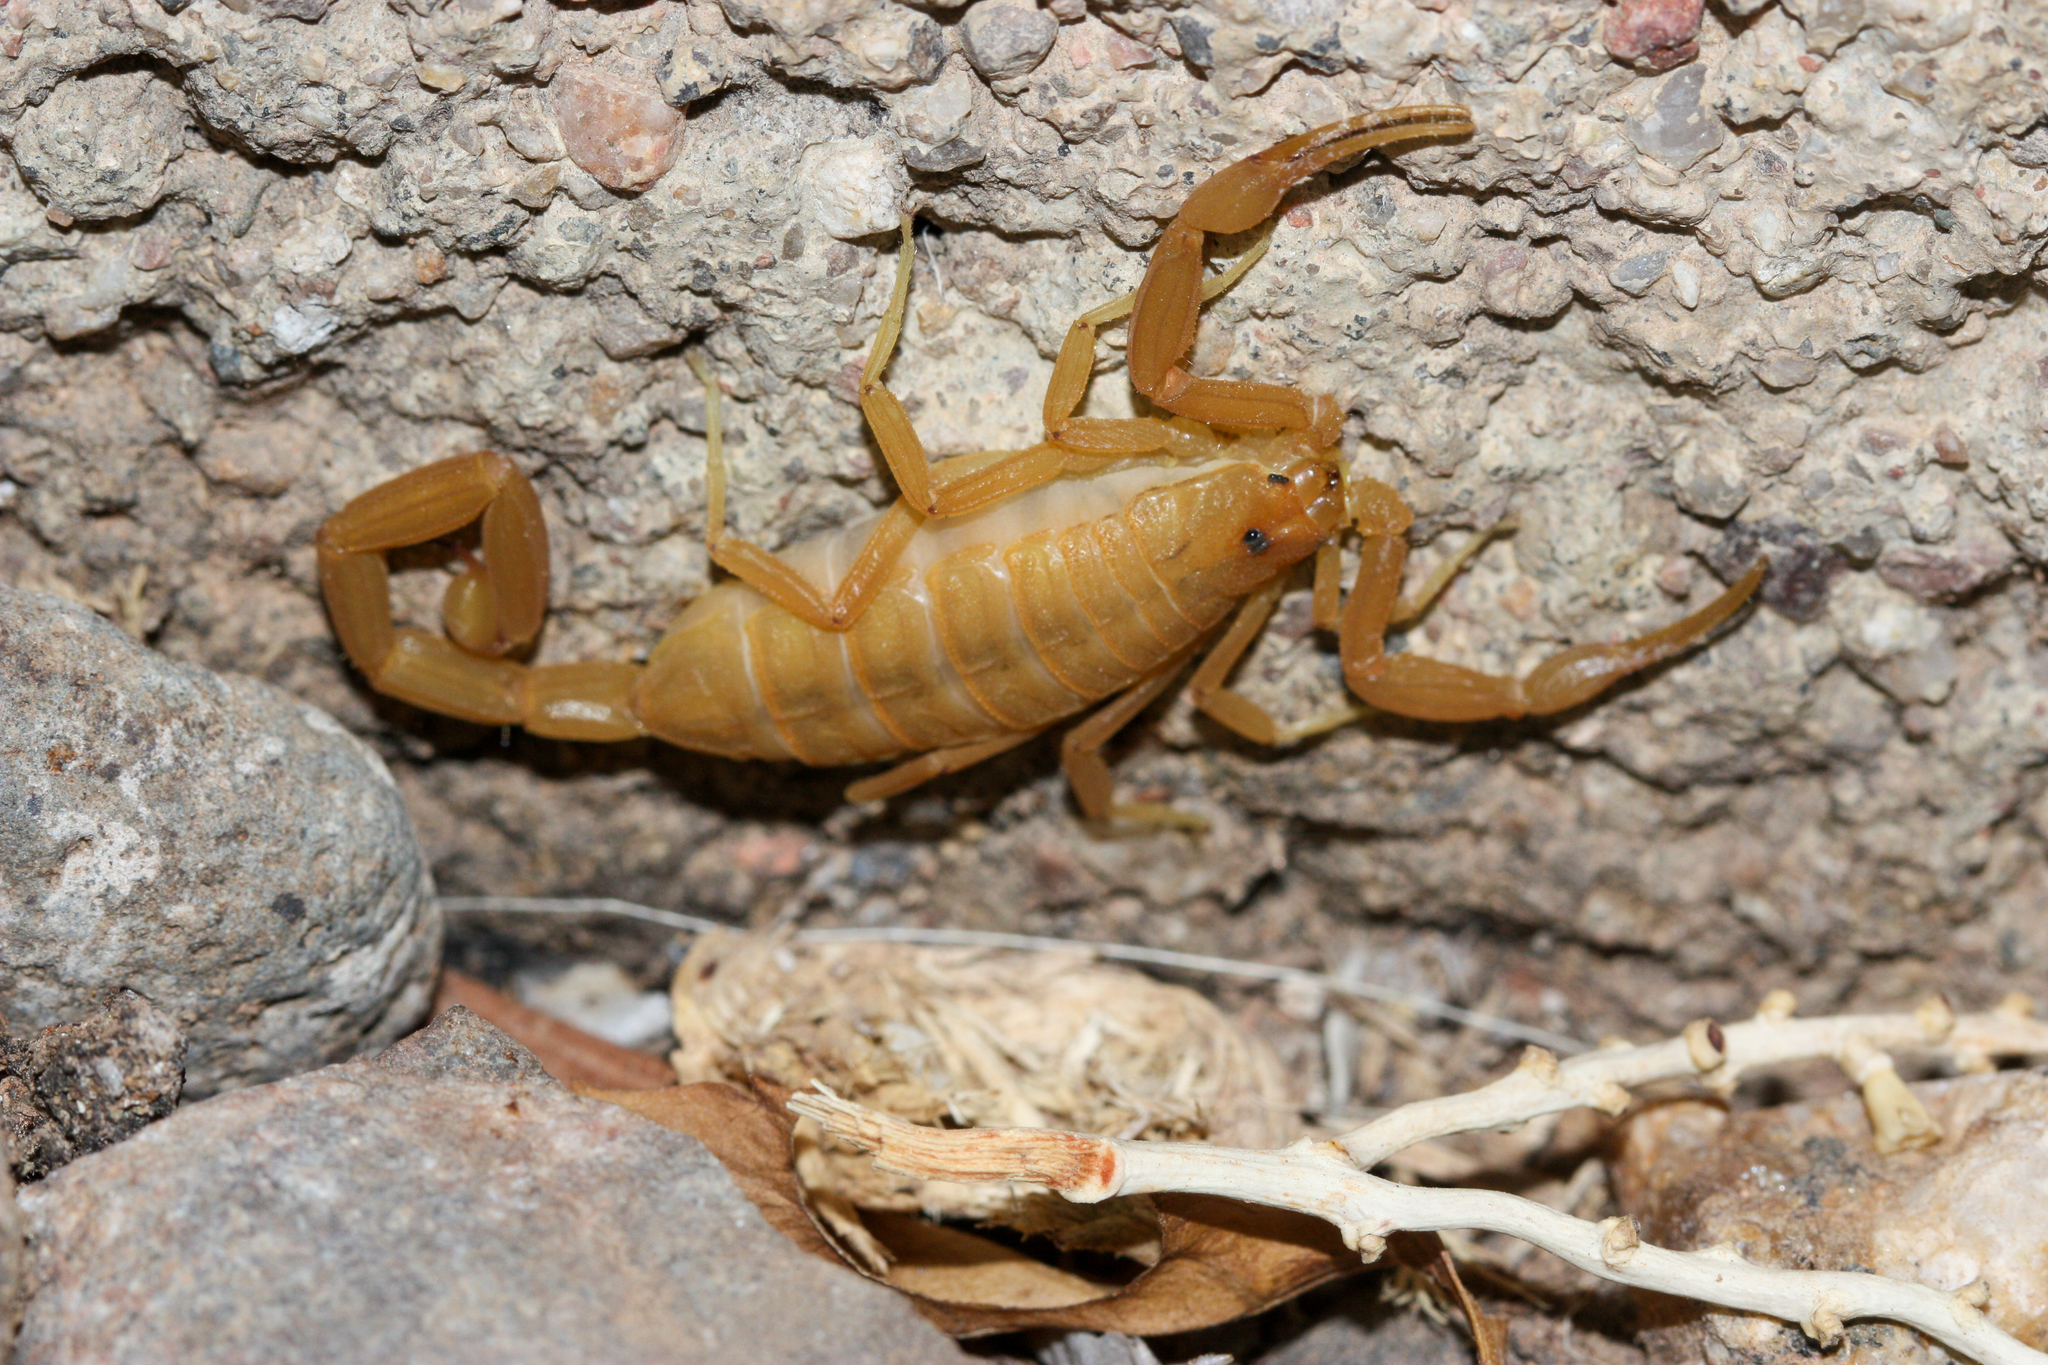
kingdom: Animalia
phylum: Arthropoda
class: Arachnida
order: Scorpiones
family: Buthidae
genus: Centruroides
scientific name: Centruroides sculpturatus
